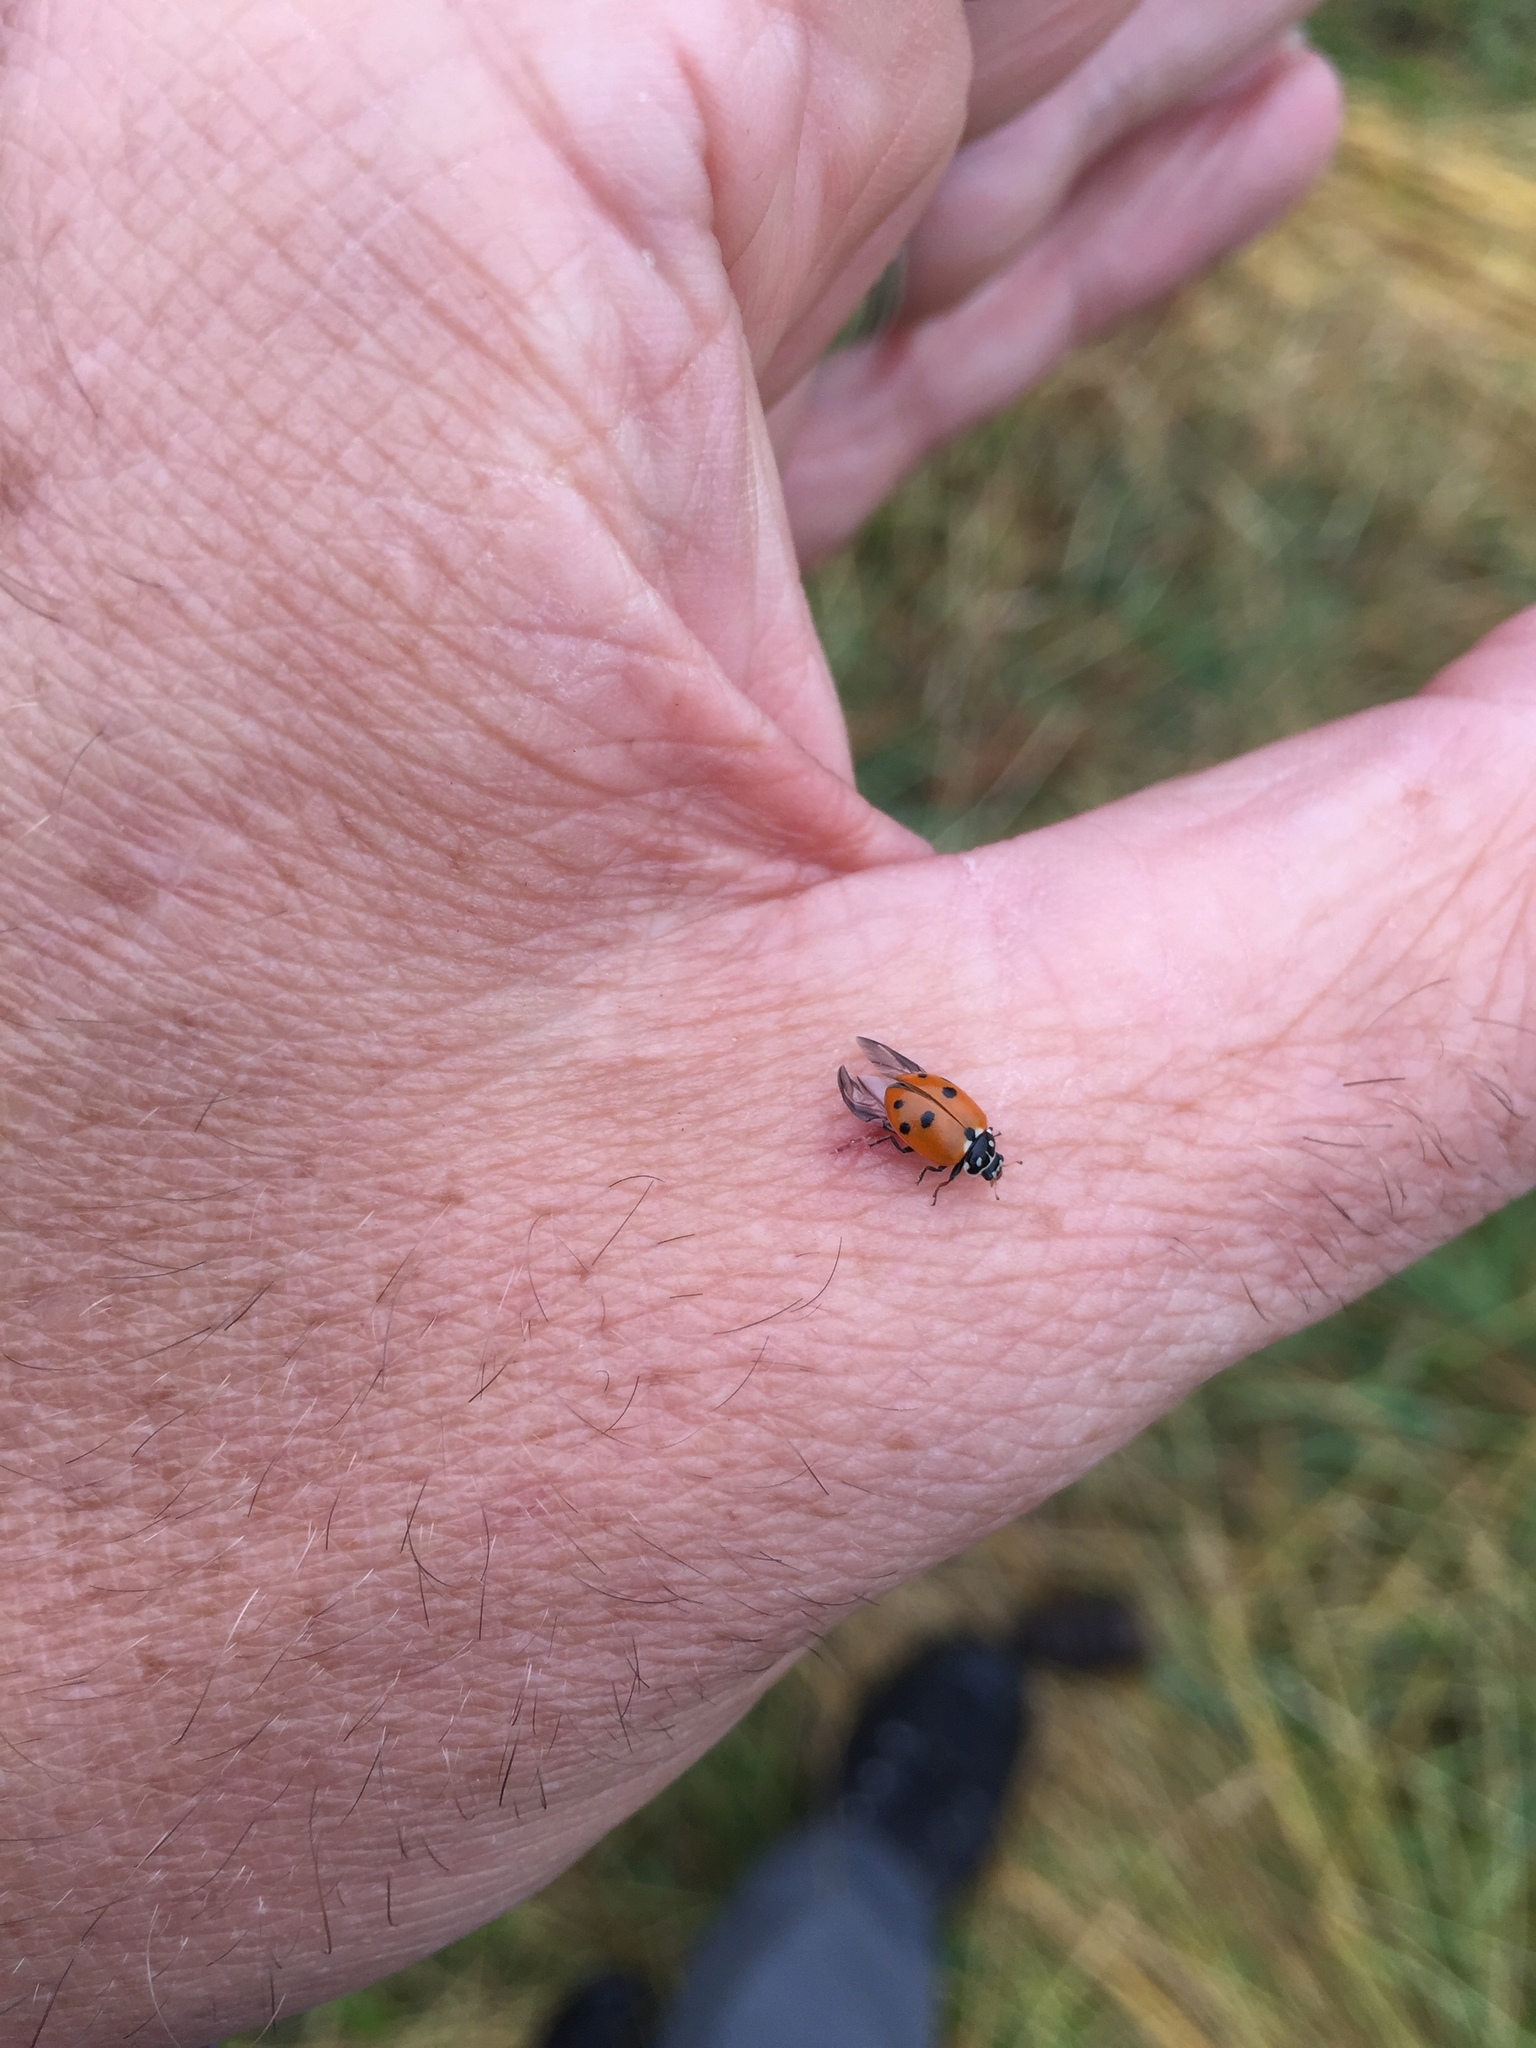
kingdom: Animalia
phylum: Arthropoda
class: Insecta
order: Coleoptera
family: Coccinellidae
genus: Hippodamia
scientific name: Hippodamia variegata
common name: Ladybird beetle
